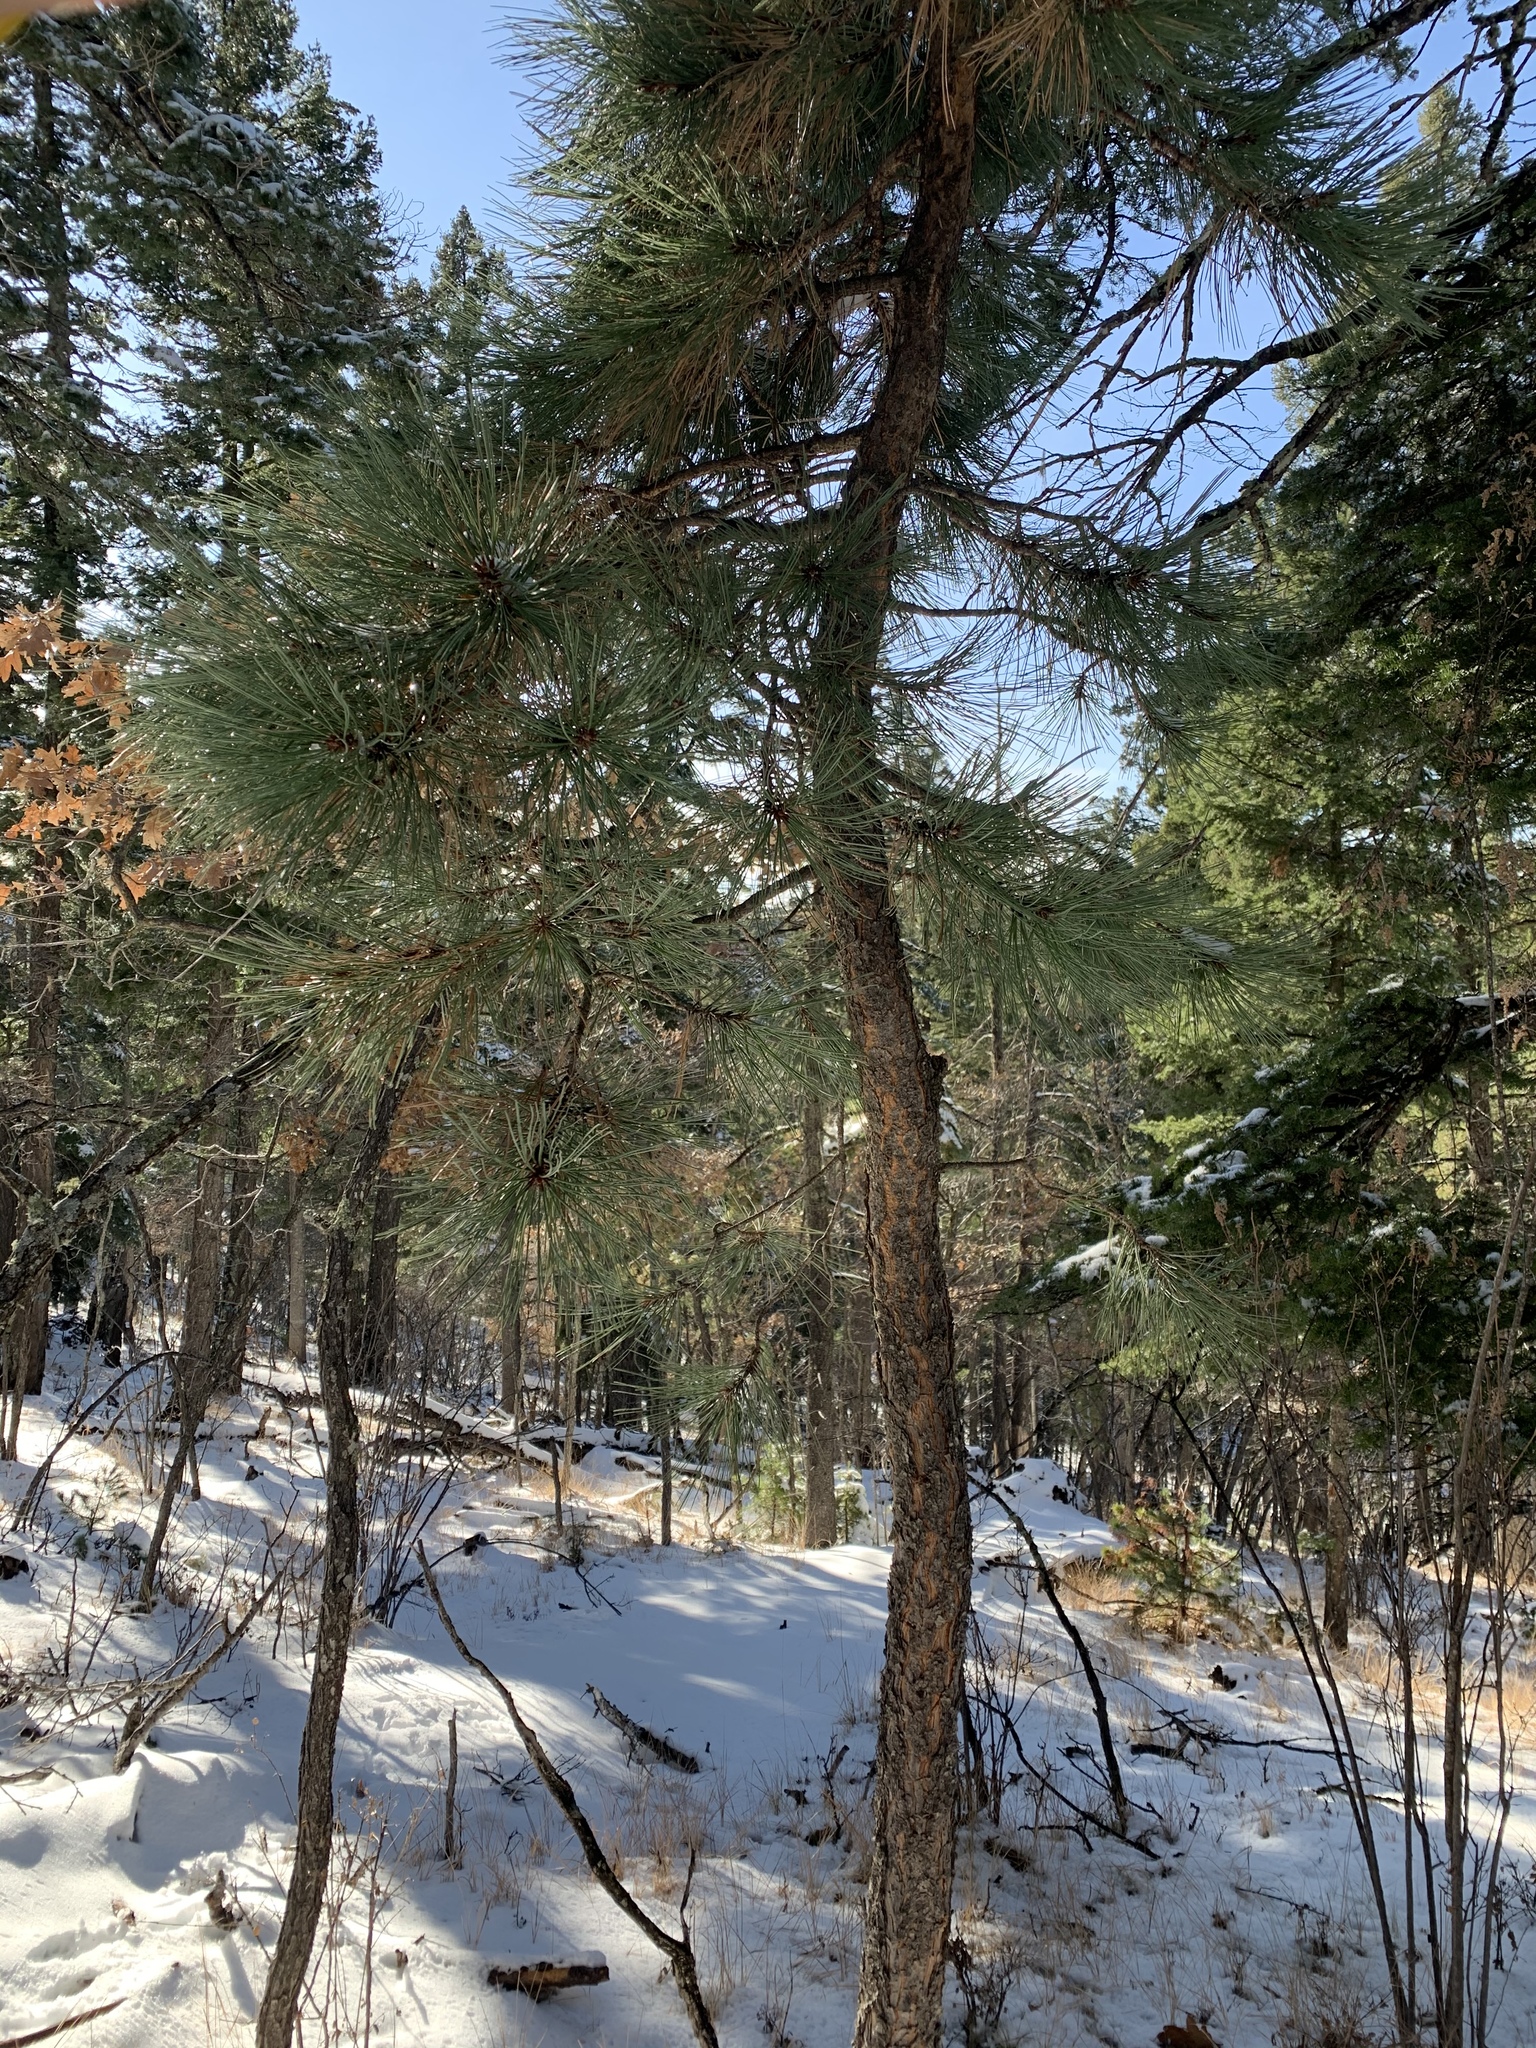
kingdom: Plantae
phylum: Tracheophyta
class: Pinopsida
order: Pinales
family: Pinaceae
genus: Pinus
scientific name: Pinus ponderosa
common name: Western yellow-pine
